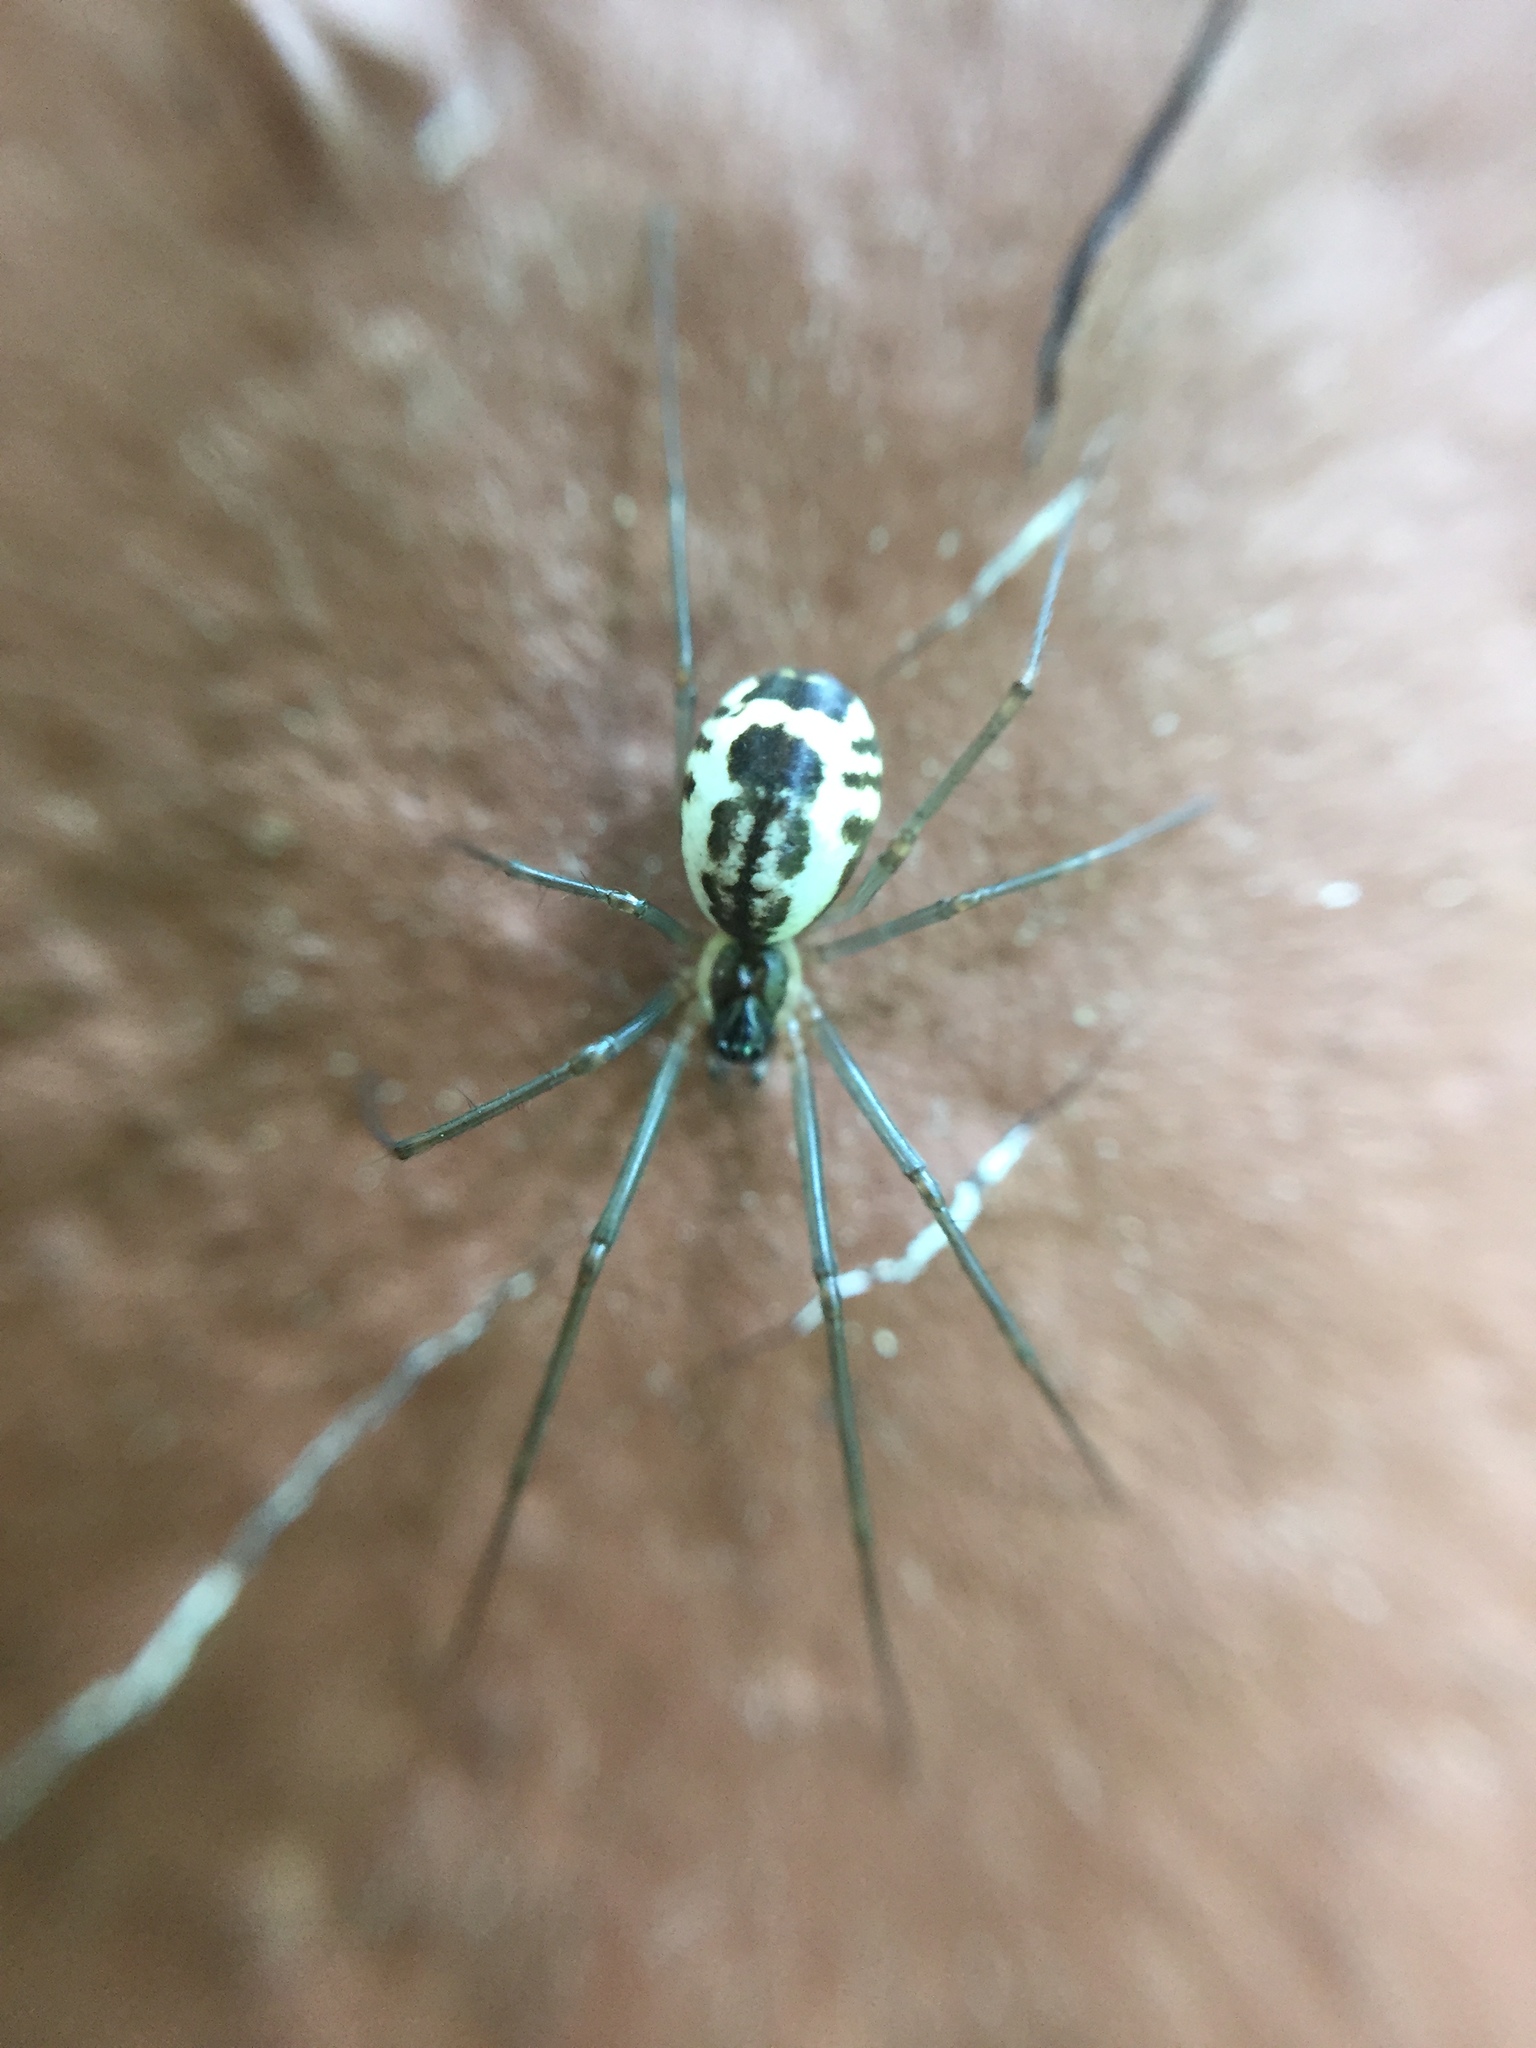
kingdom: Animalia
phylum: Arthropoda
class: Arachnida
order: Araneae
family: Linyphiidae
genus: Neriene
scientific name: Neriene radiata
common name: Filmy dome spider
